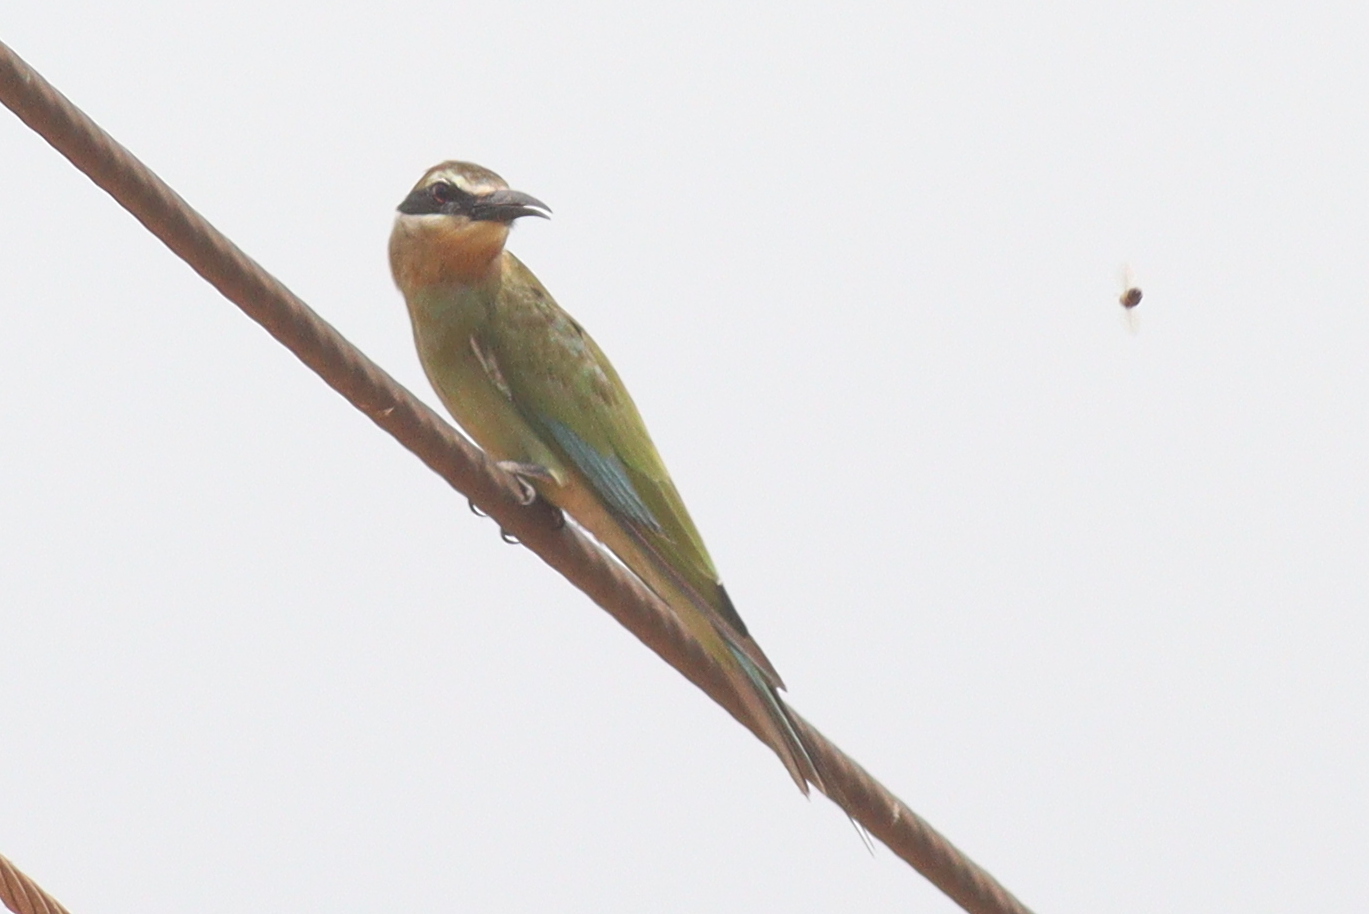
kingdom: Animalia
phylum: Chordata
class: Aves
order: Coraciiformes
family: Meropidae
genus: Merops
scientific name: Merops superciliosus
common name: Olive bee-eater
